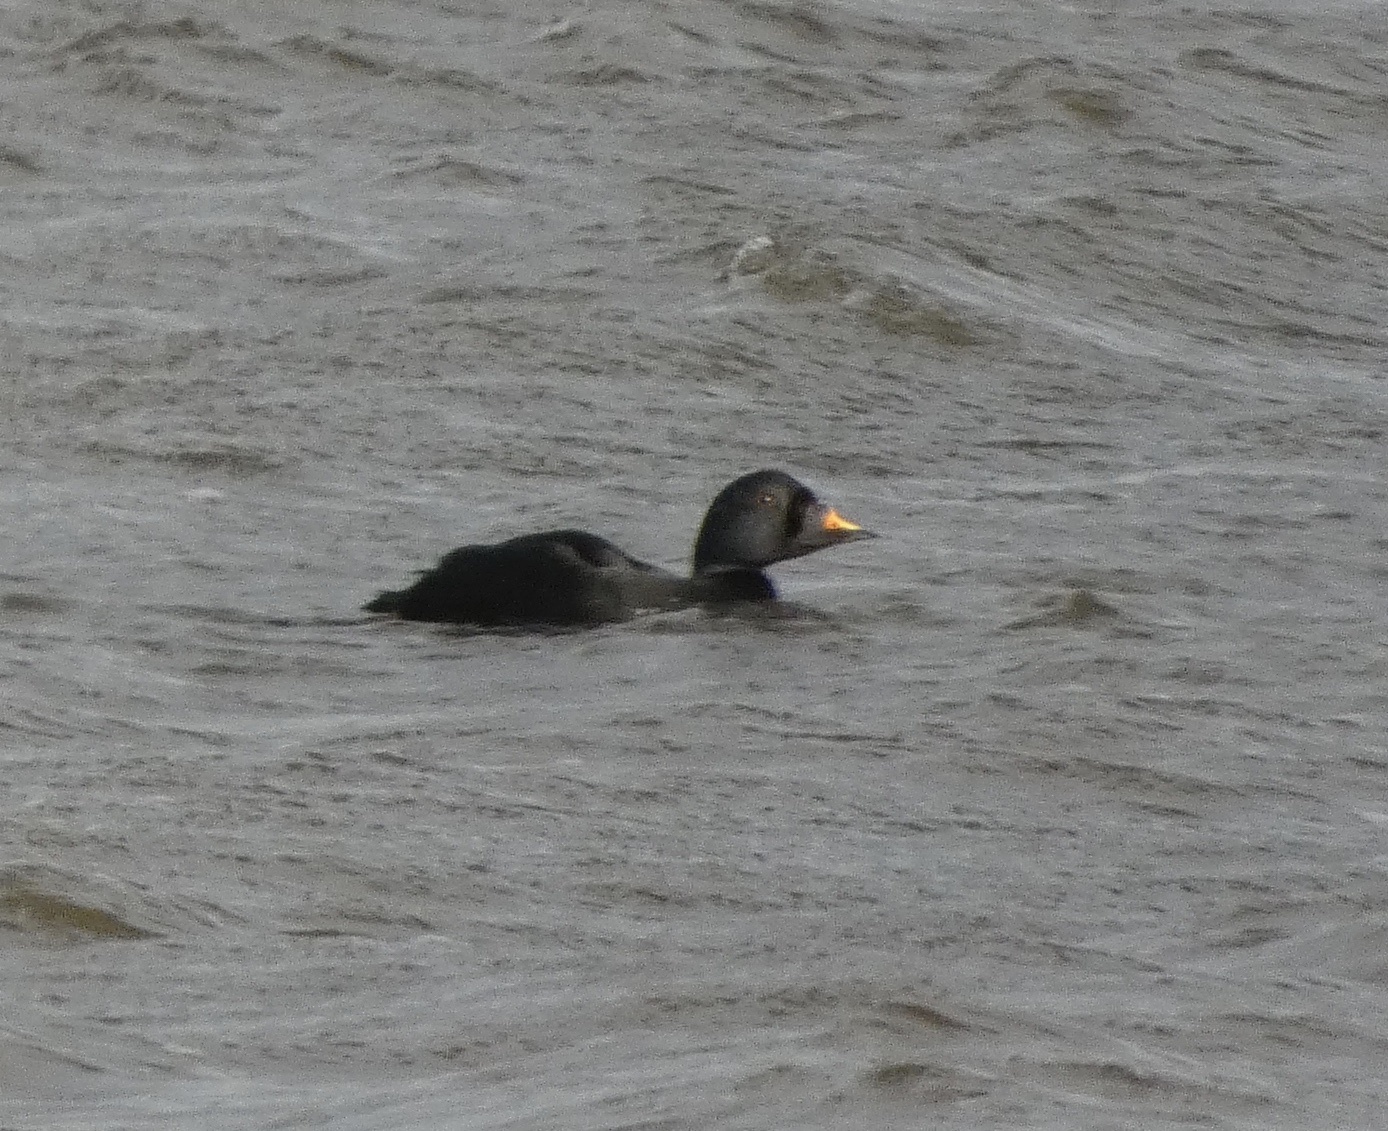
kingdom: Animalia
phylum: Chordata
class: Aves
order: Anseriformes
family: Anatidae
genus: Melanitta
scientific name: Melanitta nigra
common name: Common scoter
